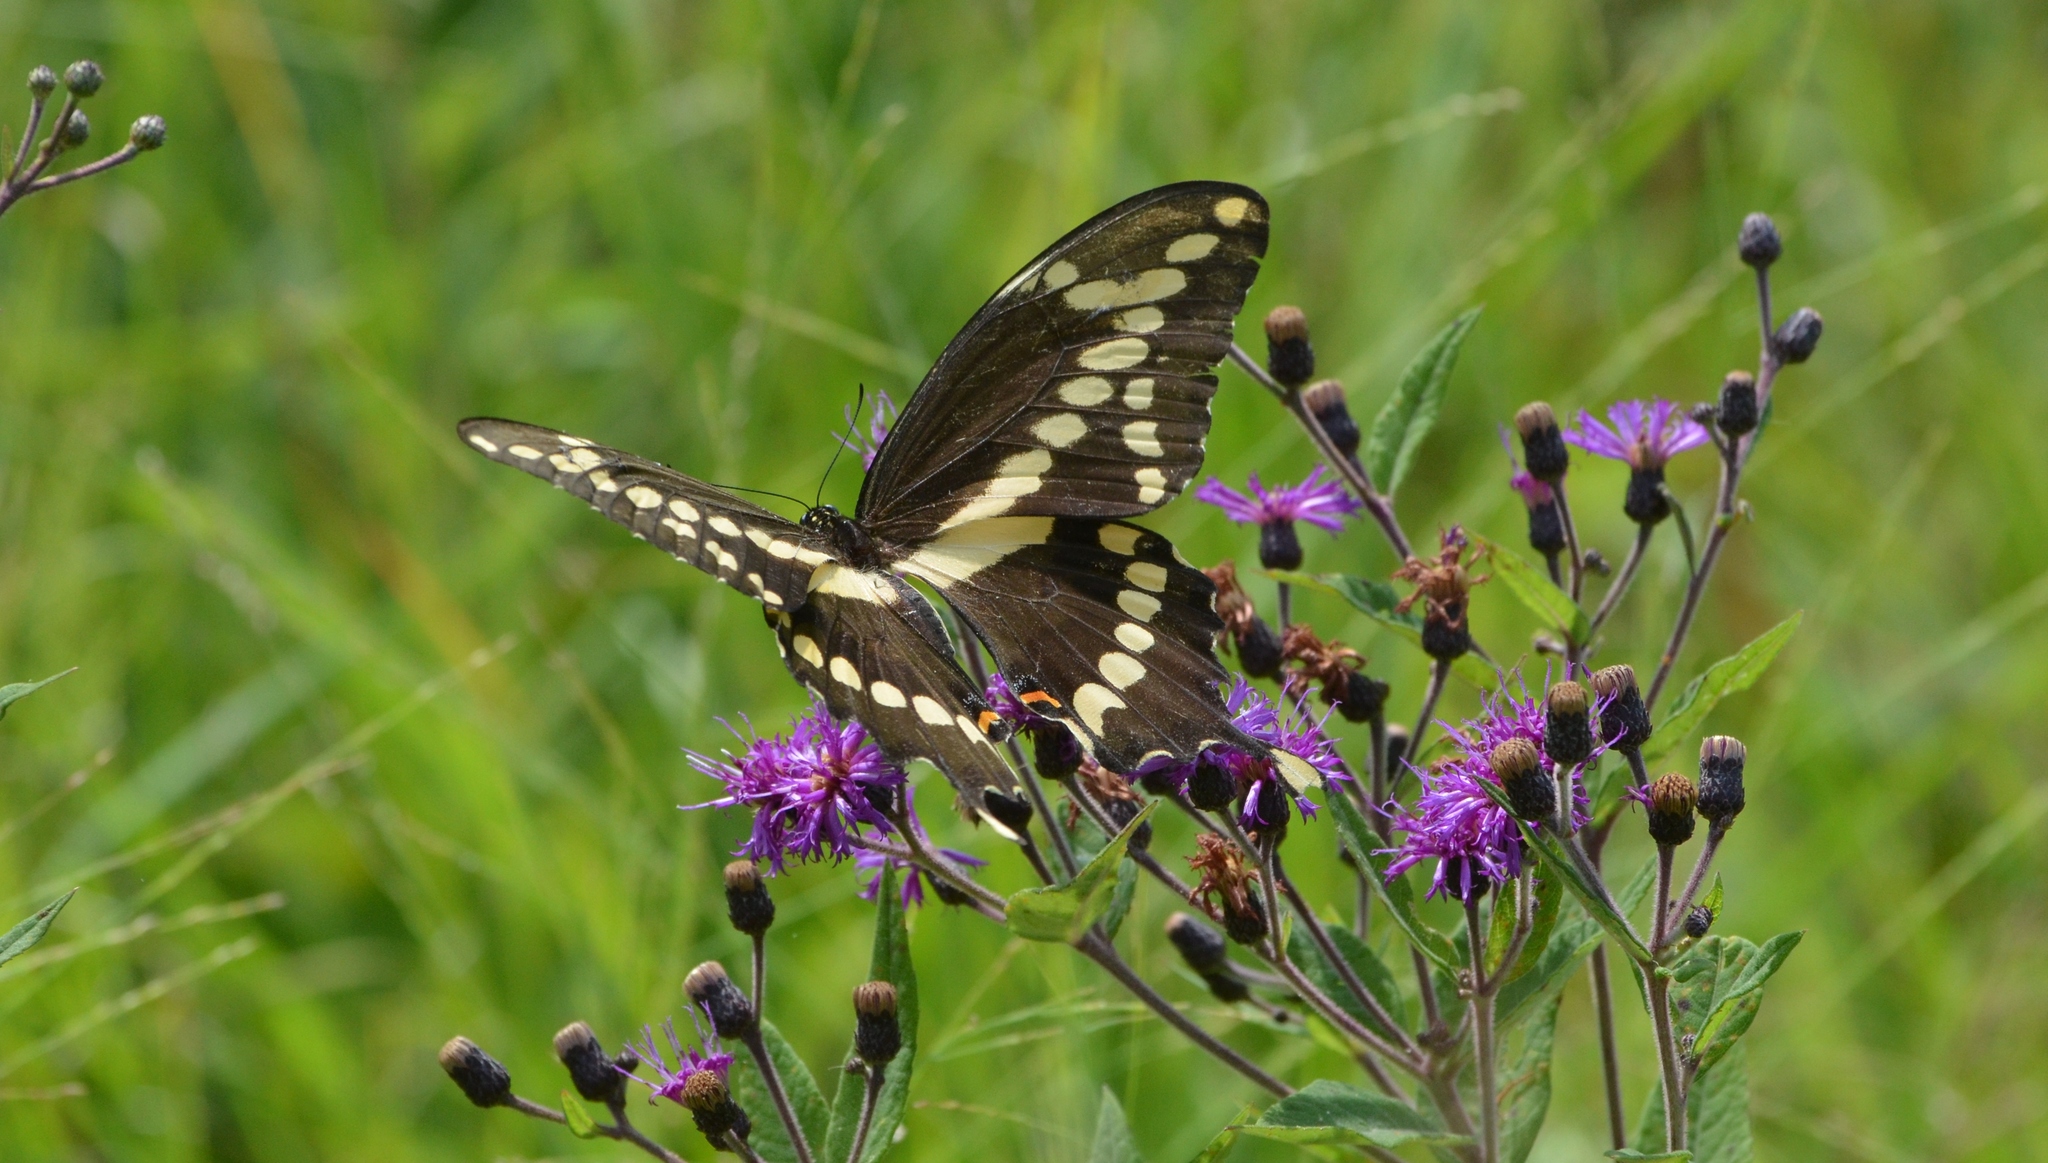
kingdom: Animalia
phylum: Arthropoda
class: Insecta
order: Lepidoptera
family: Papilionidae
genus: Papilio
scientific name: Papilio cresphontes
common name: Giant swallowtail
